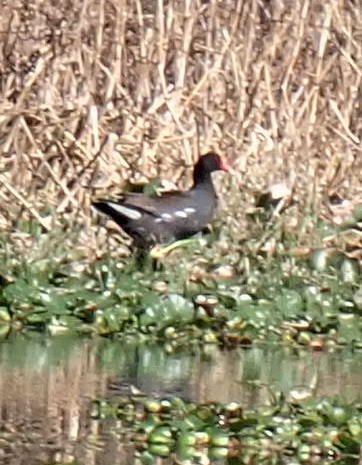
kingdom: Animalia
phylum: Chordata
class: Aves
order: Gruiformes
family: Rallidae
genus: Gallinula
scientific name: Gallinula chloropus
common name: Common moorhen
